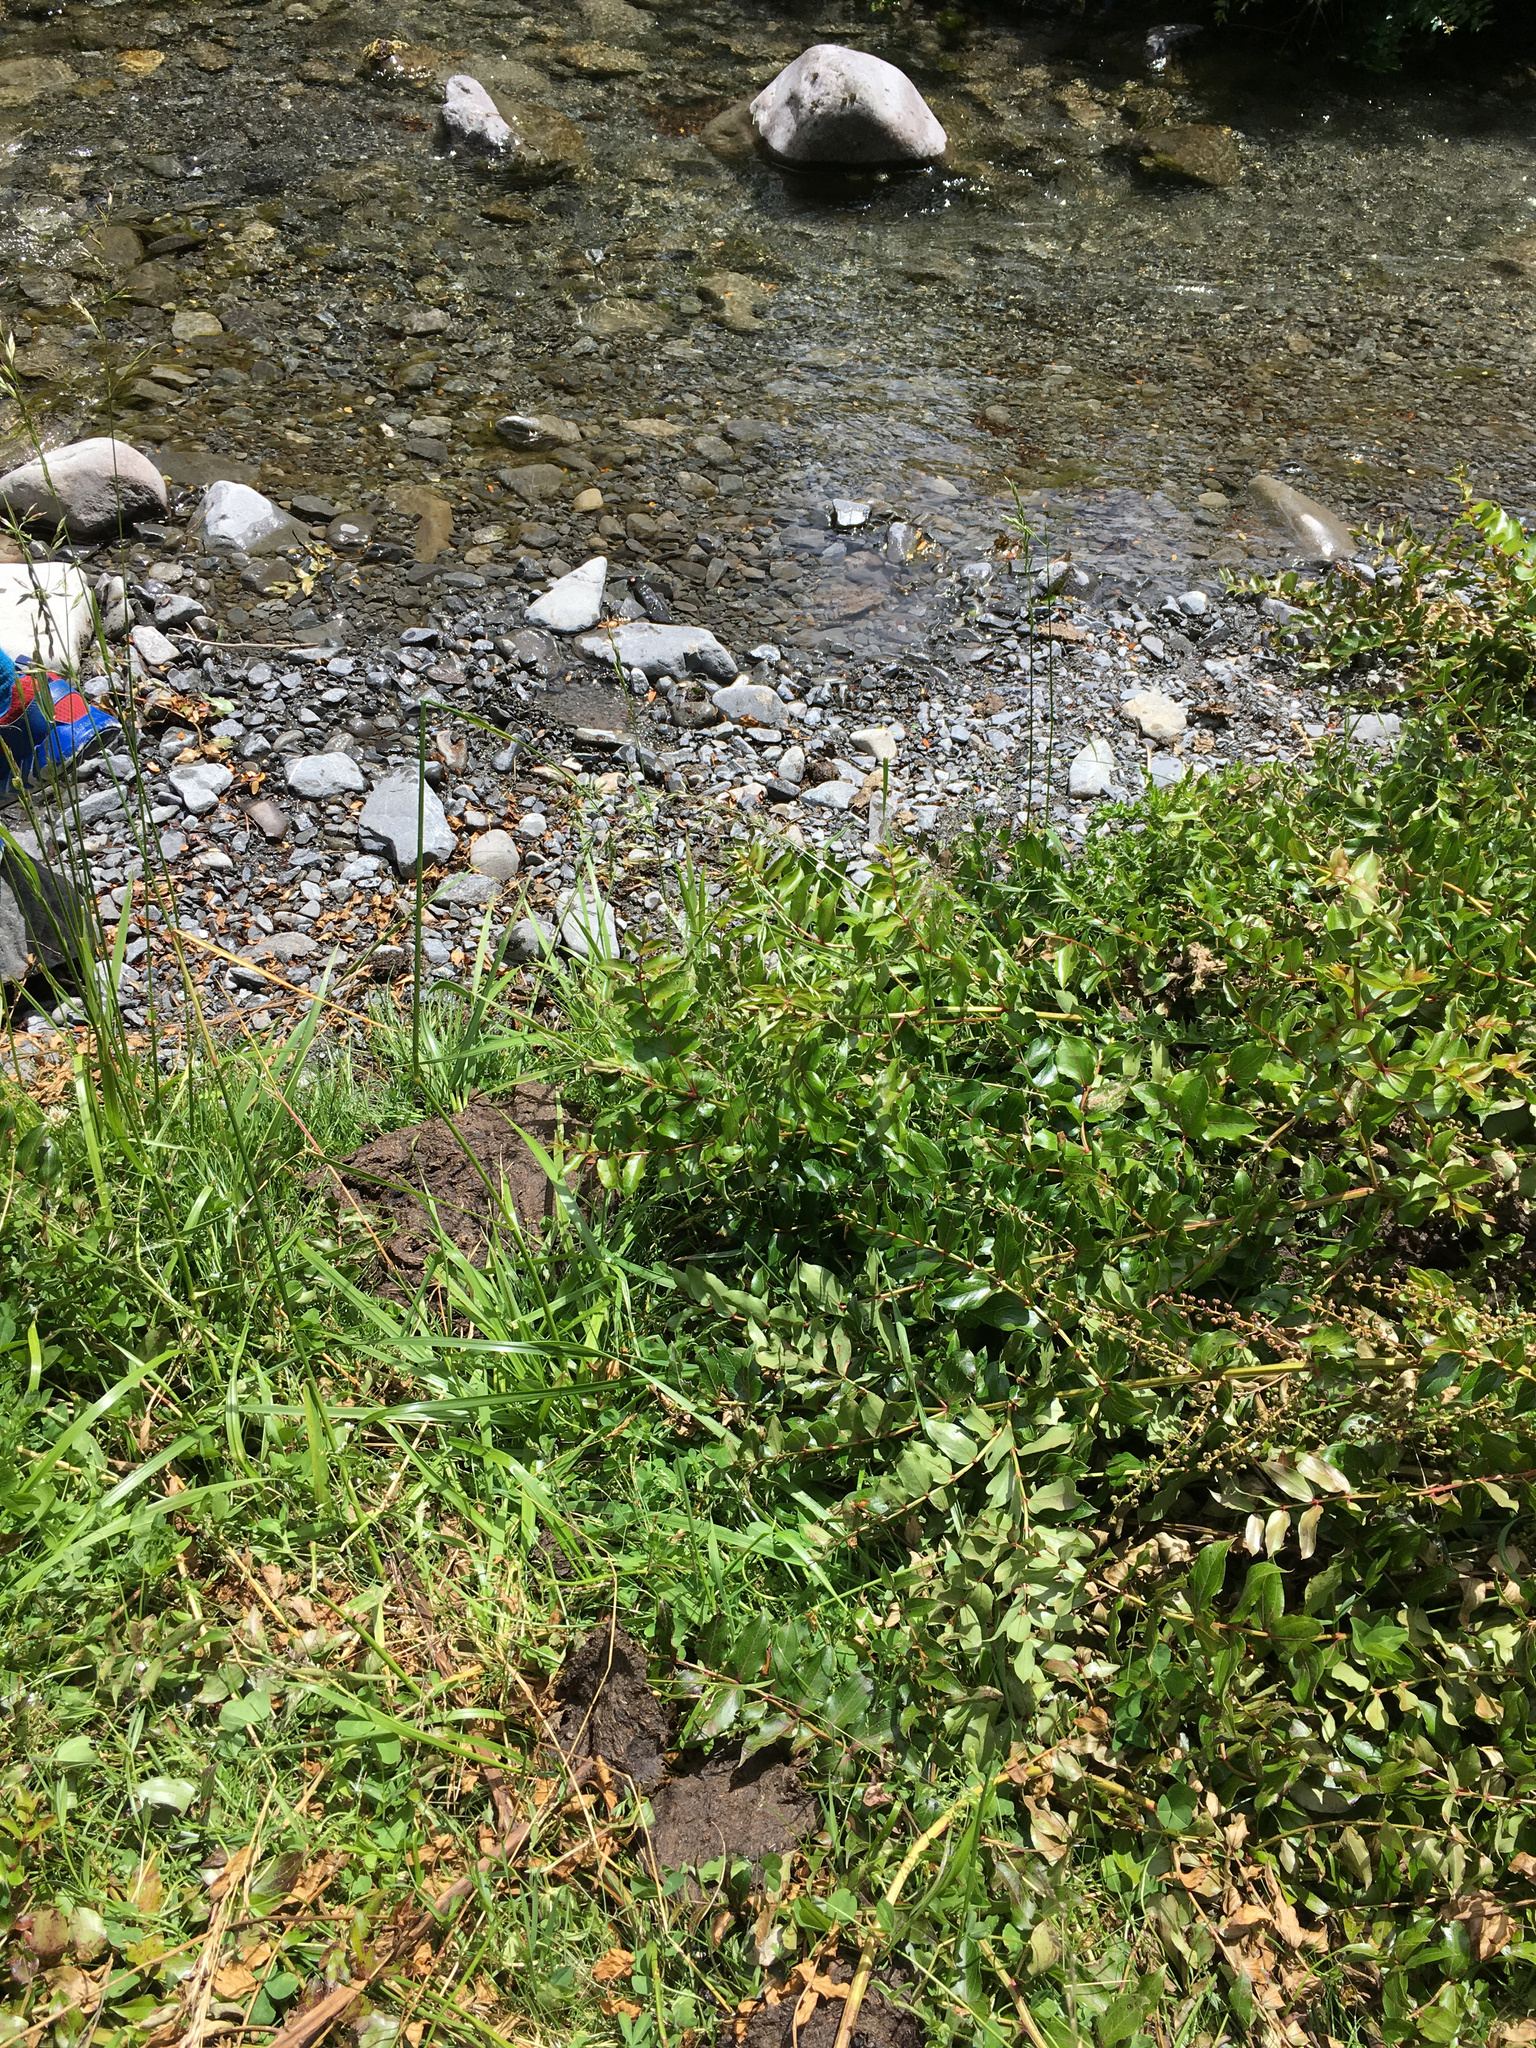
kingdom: Animalia
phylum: Chordata
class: Mammalia
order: Artiodactyla
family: Bovidae
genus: Bos
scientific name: Bos taurus
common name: Domesticated cattle
